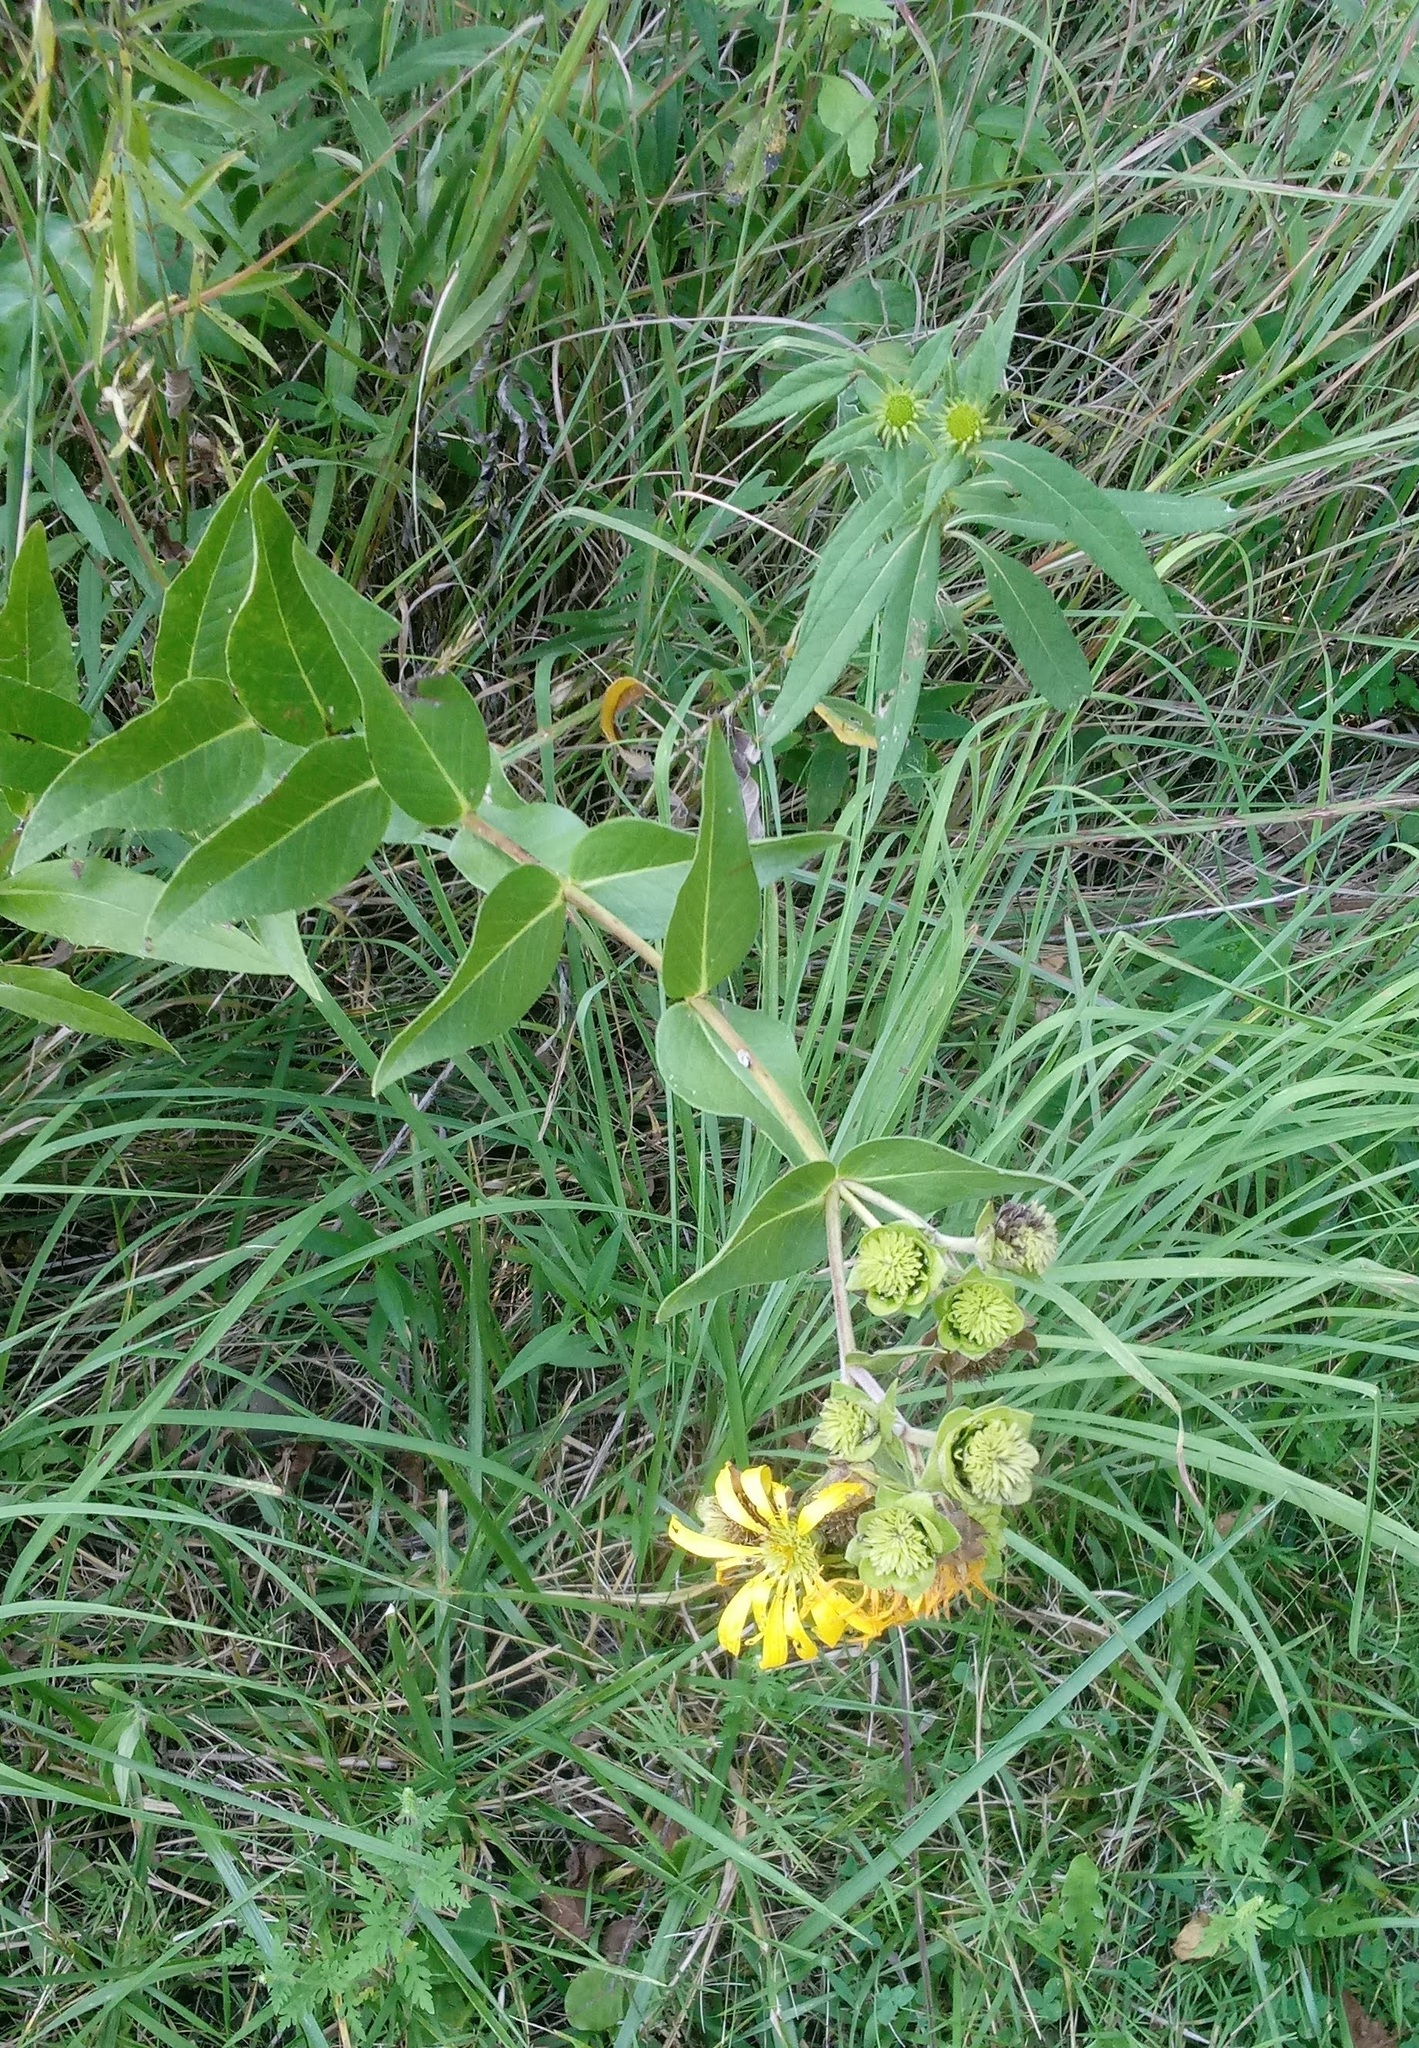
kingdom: Plantae
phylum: Tracheophyta
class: Magnoliopsida
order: Asterales
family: Asteraceae
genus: Silphium
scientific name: Silphium integrifolium
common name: Whole-leaf rosinweed
